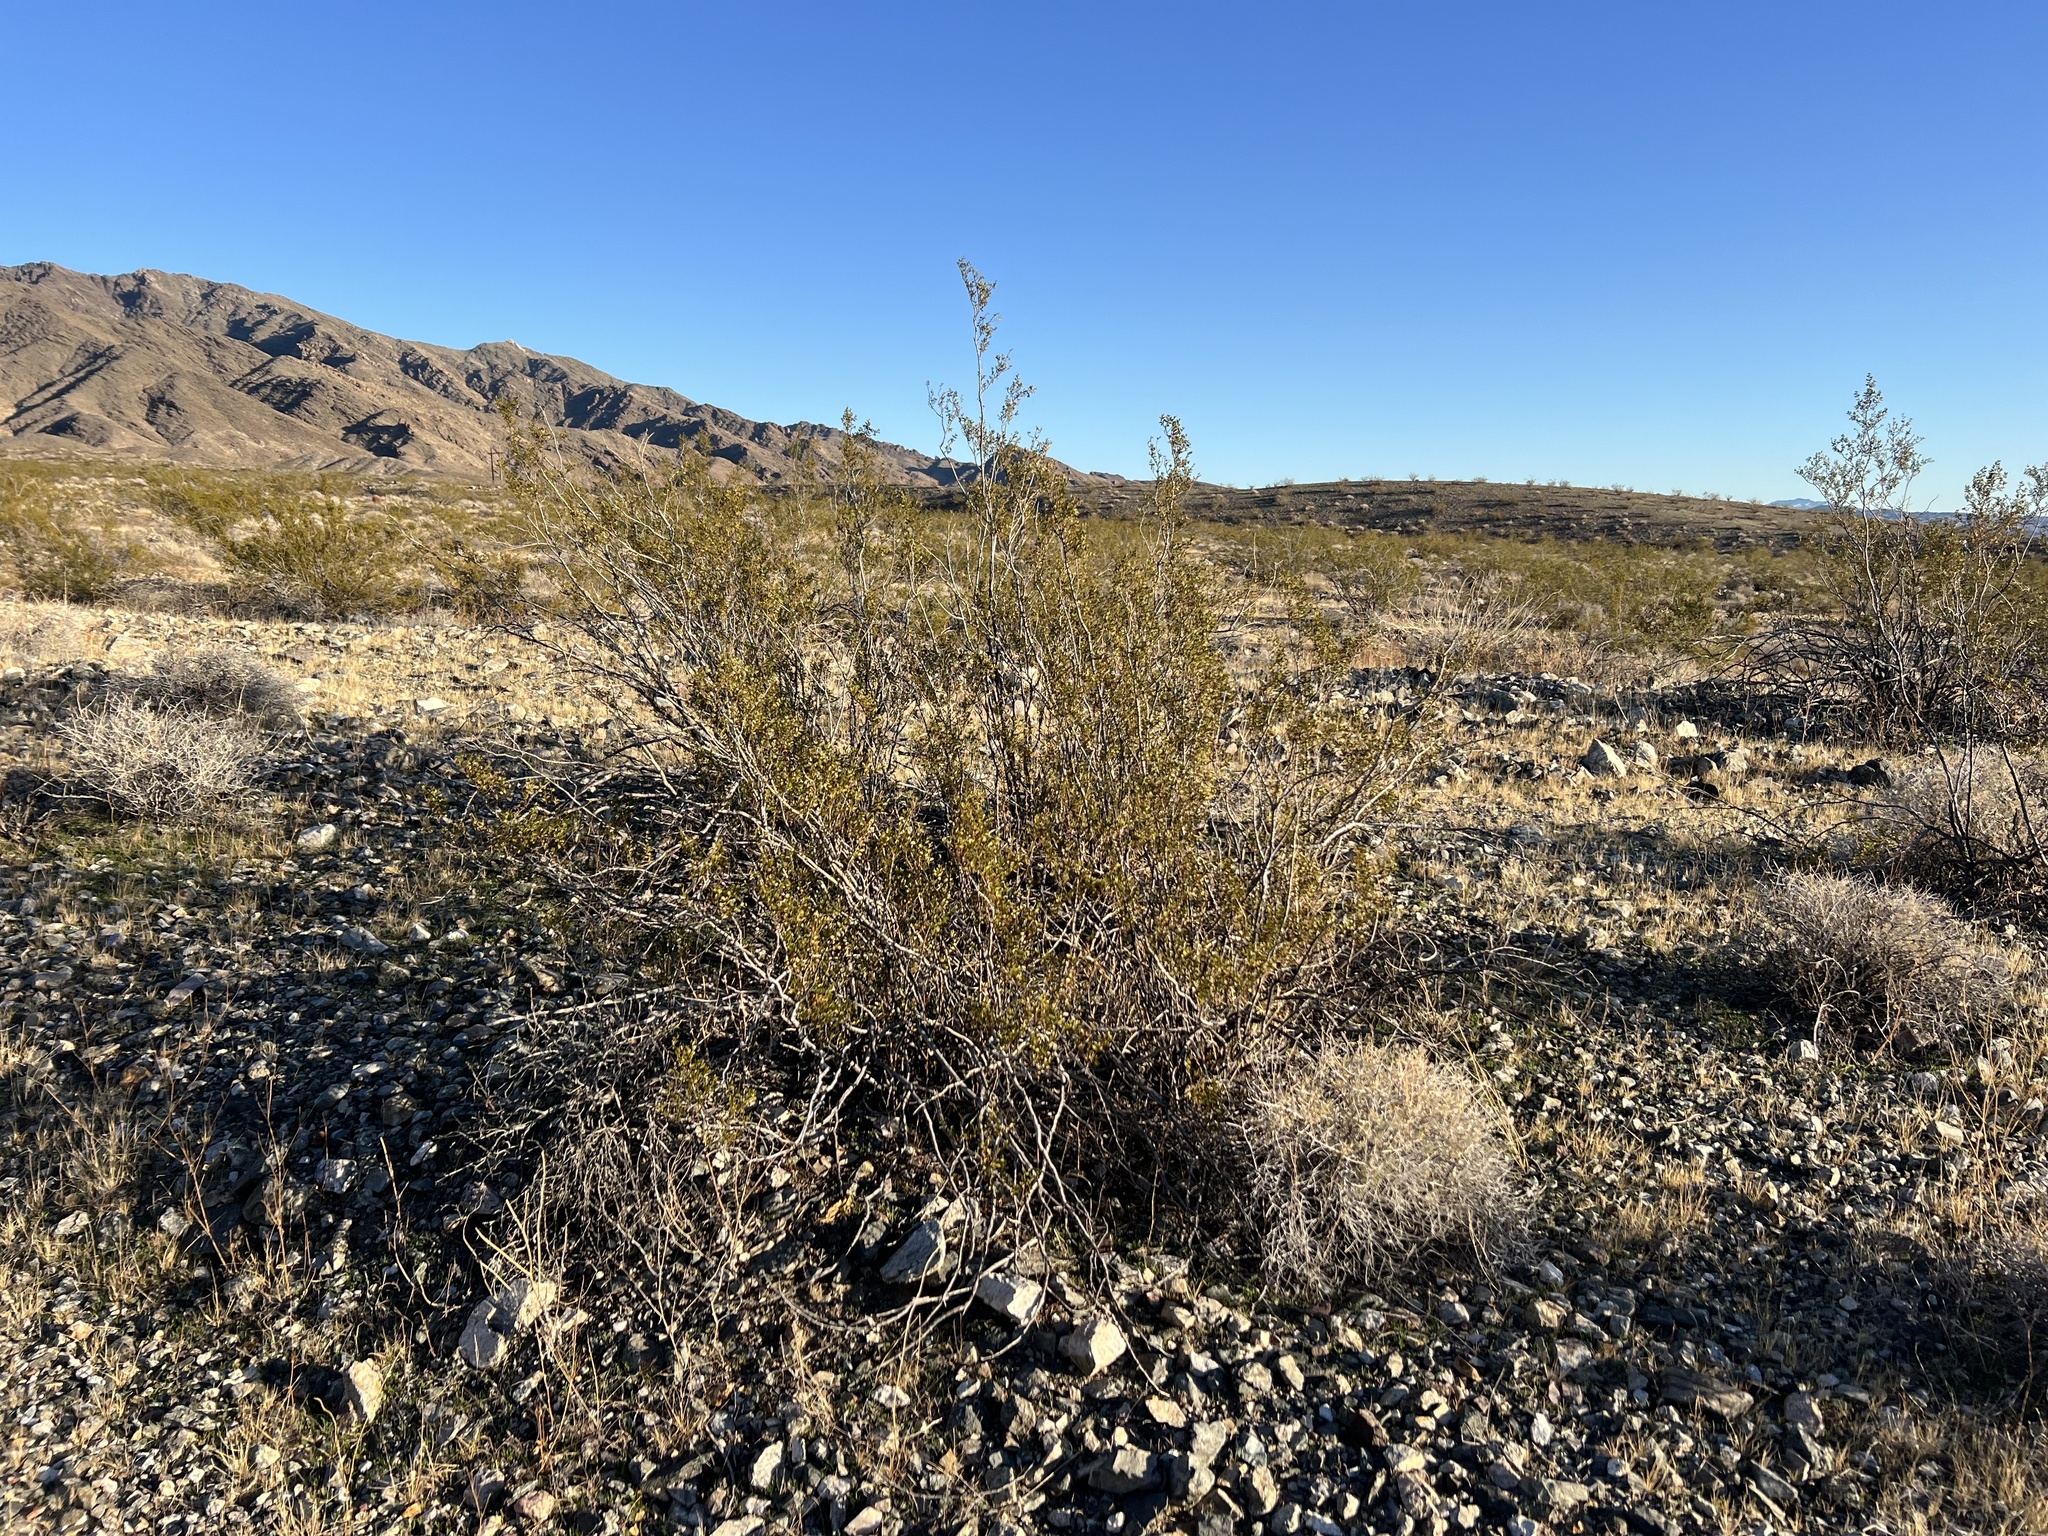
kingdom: Plantae
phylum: Tracheophyta
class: Magnoliopsida
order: Zygophyllales
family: Zygophyllaceae
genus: Larrea
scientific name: Larrea tridentata
